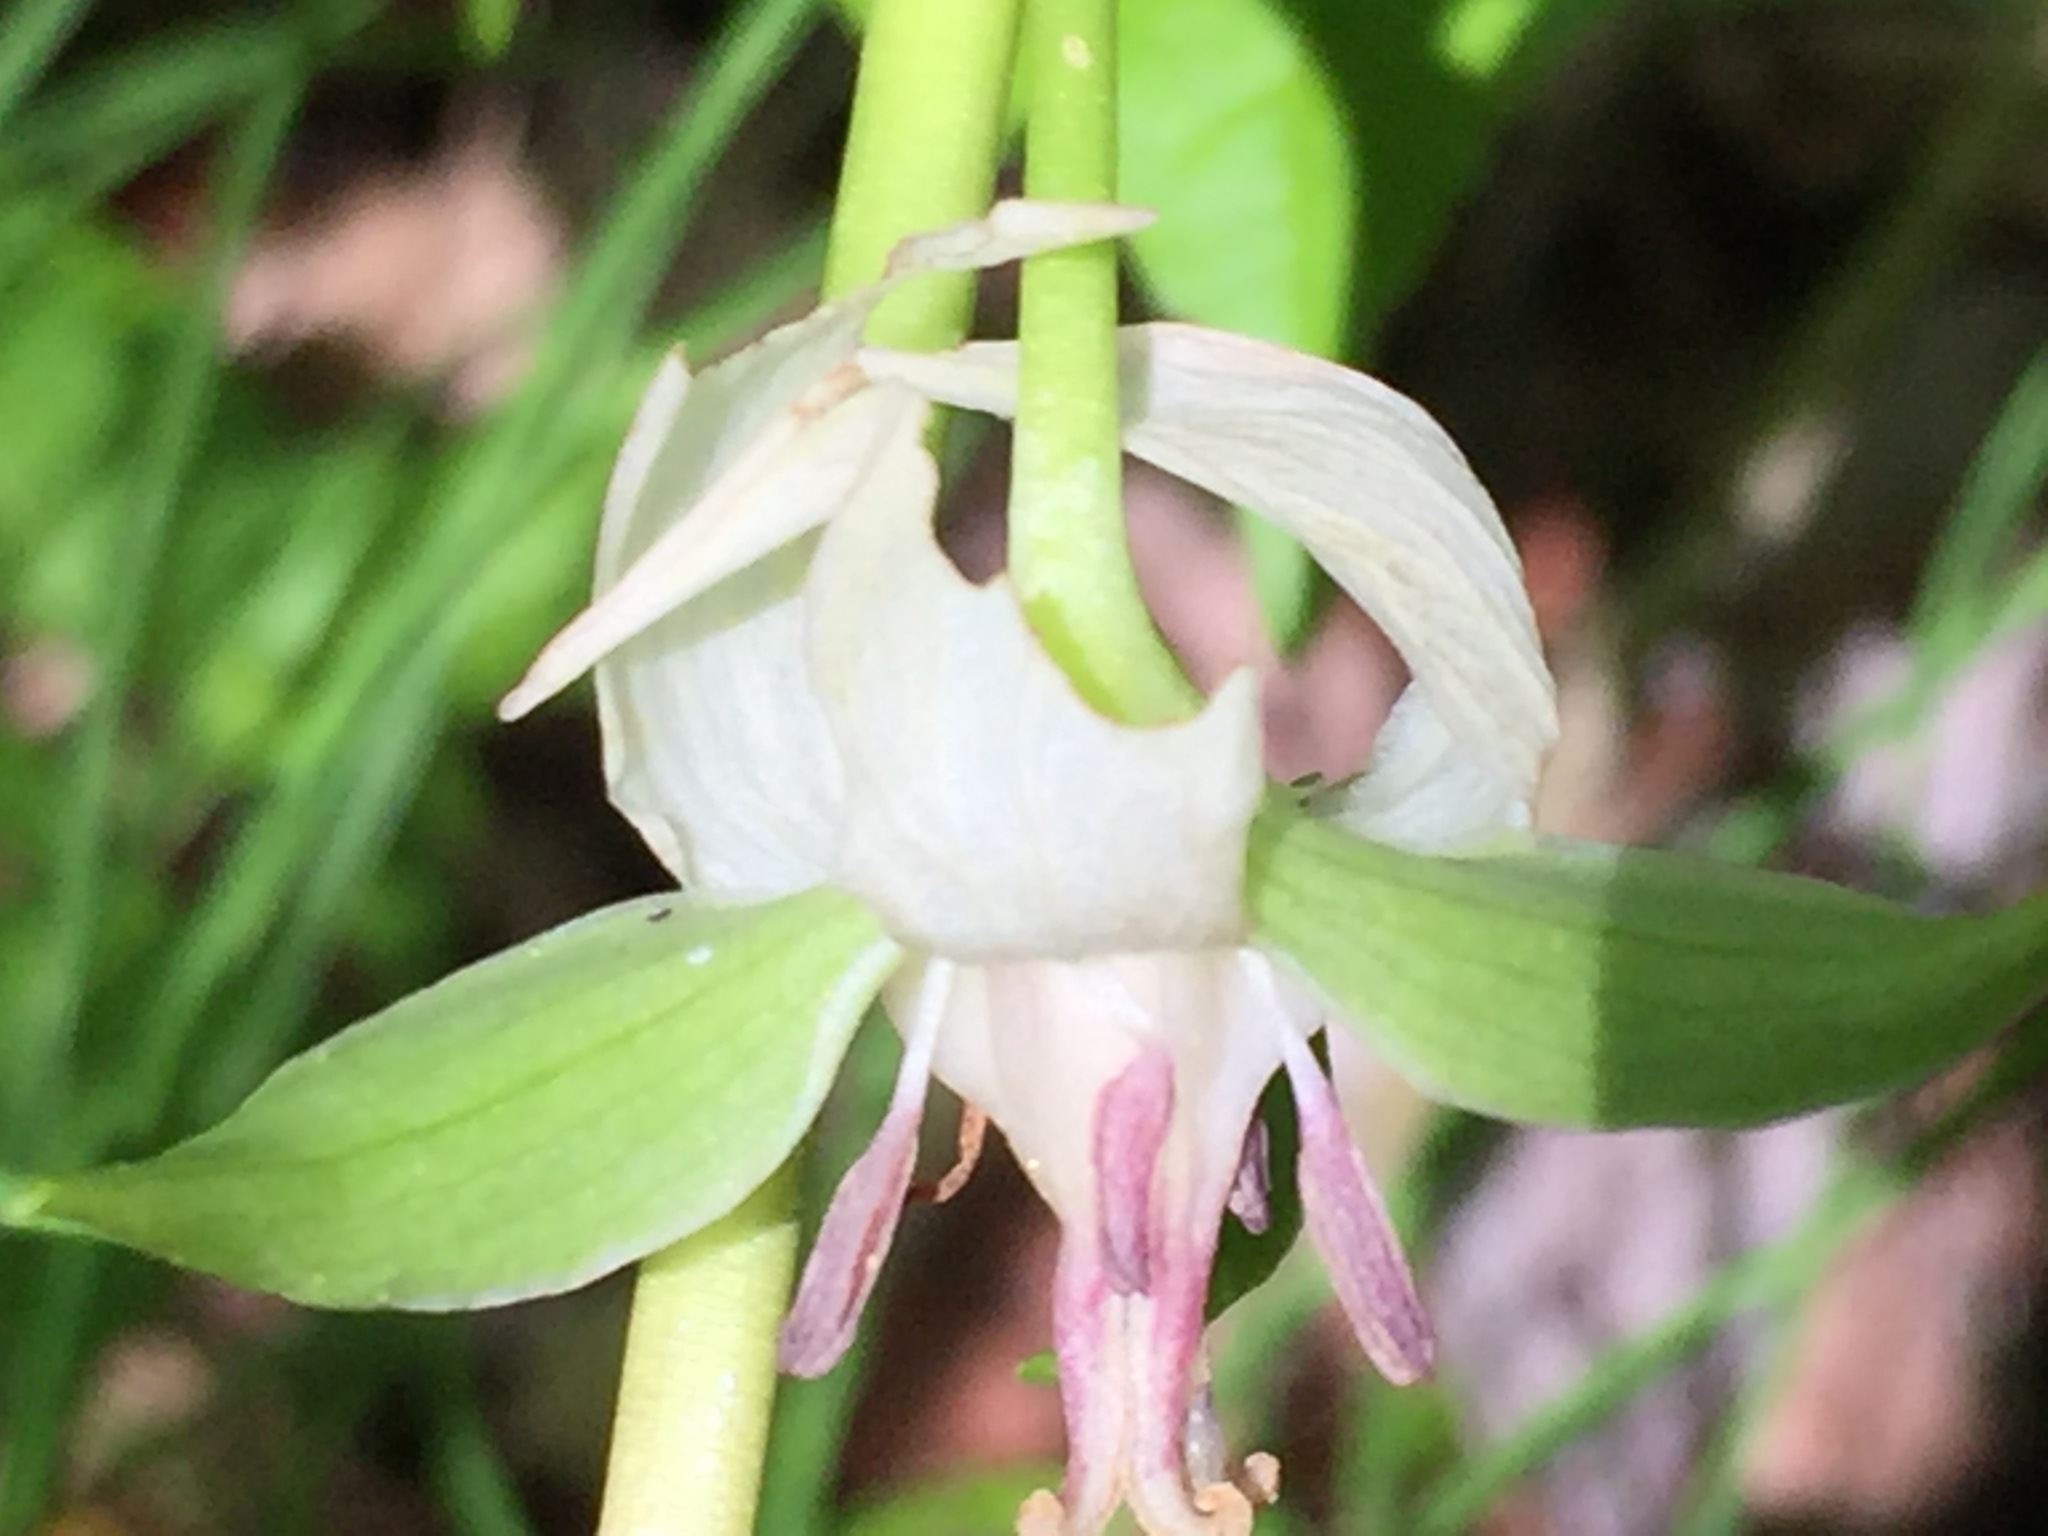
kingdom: Plantae
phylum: Tracheophyta
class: Liliopsida
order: Liliales
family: Melanthiaceae
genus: Trillium
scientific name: Trillium cernuum
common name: Nodding trillium
